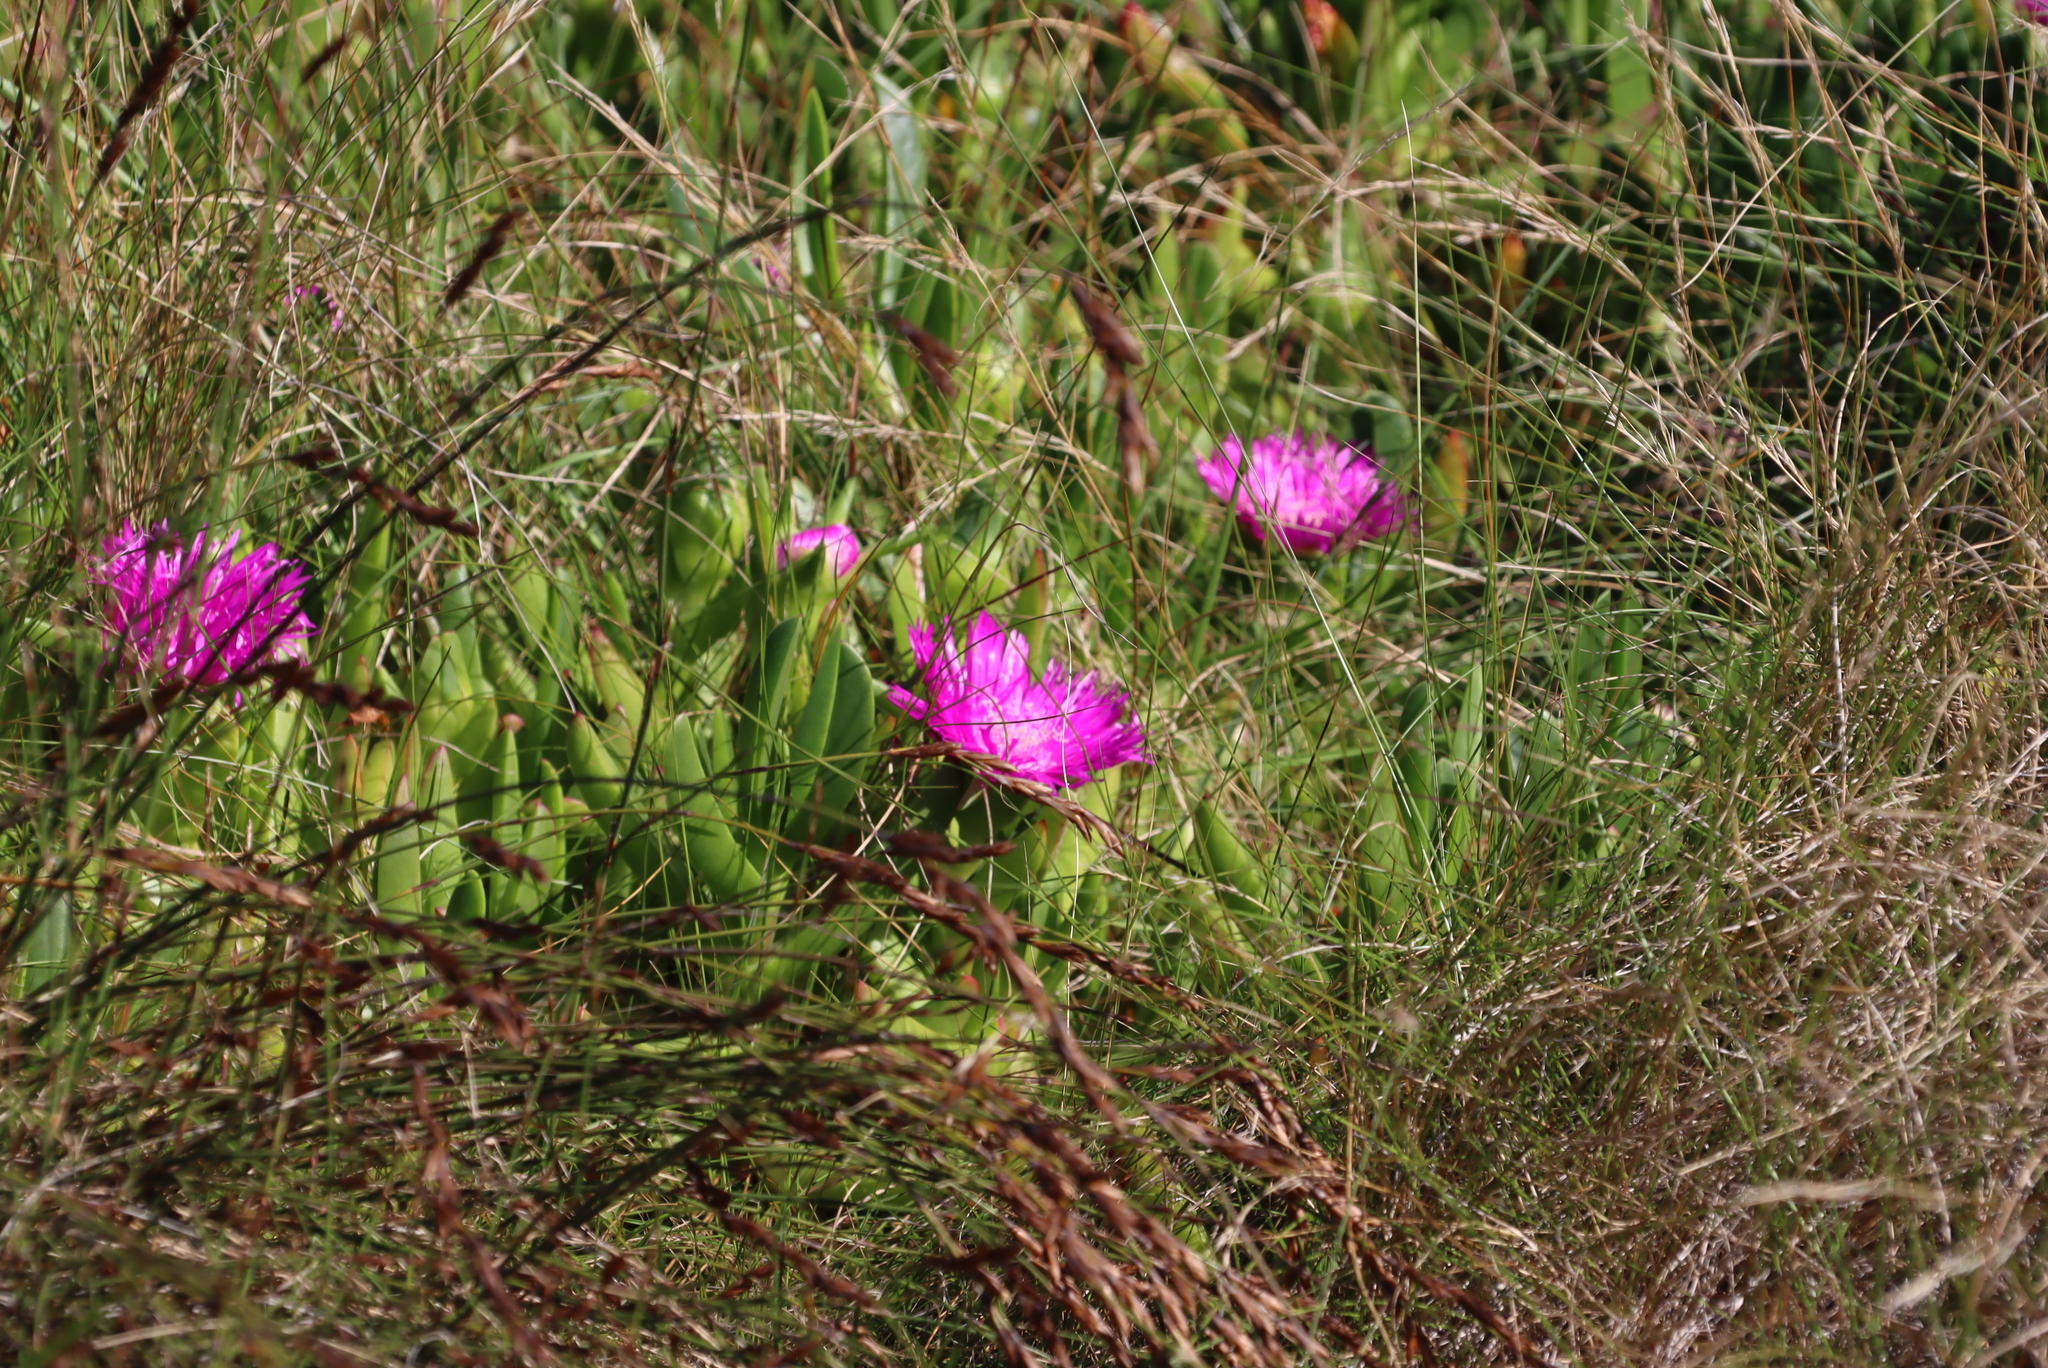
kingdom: Plantae
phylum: Tracheophyta
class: Magnoliopsida
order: Caryophyllales
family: Aizoaceae
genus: Carpobrotus
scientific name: Carpobrotus deliciosus
